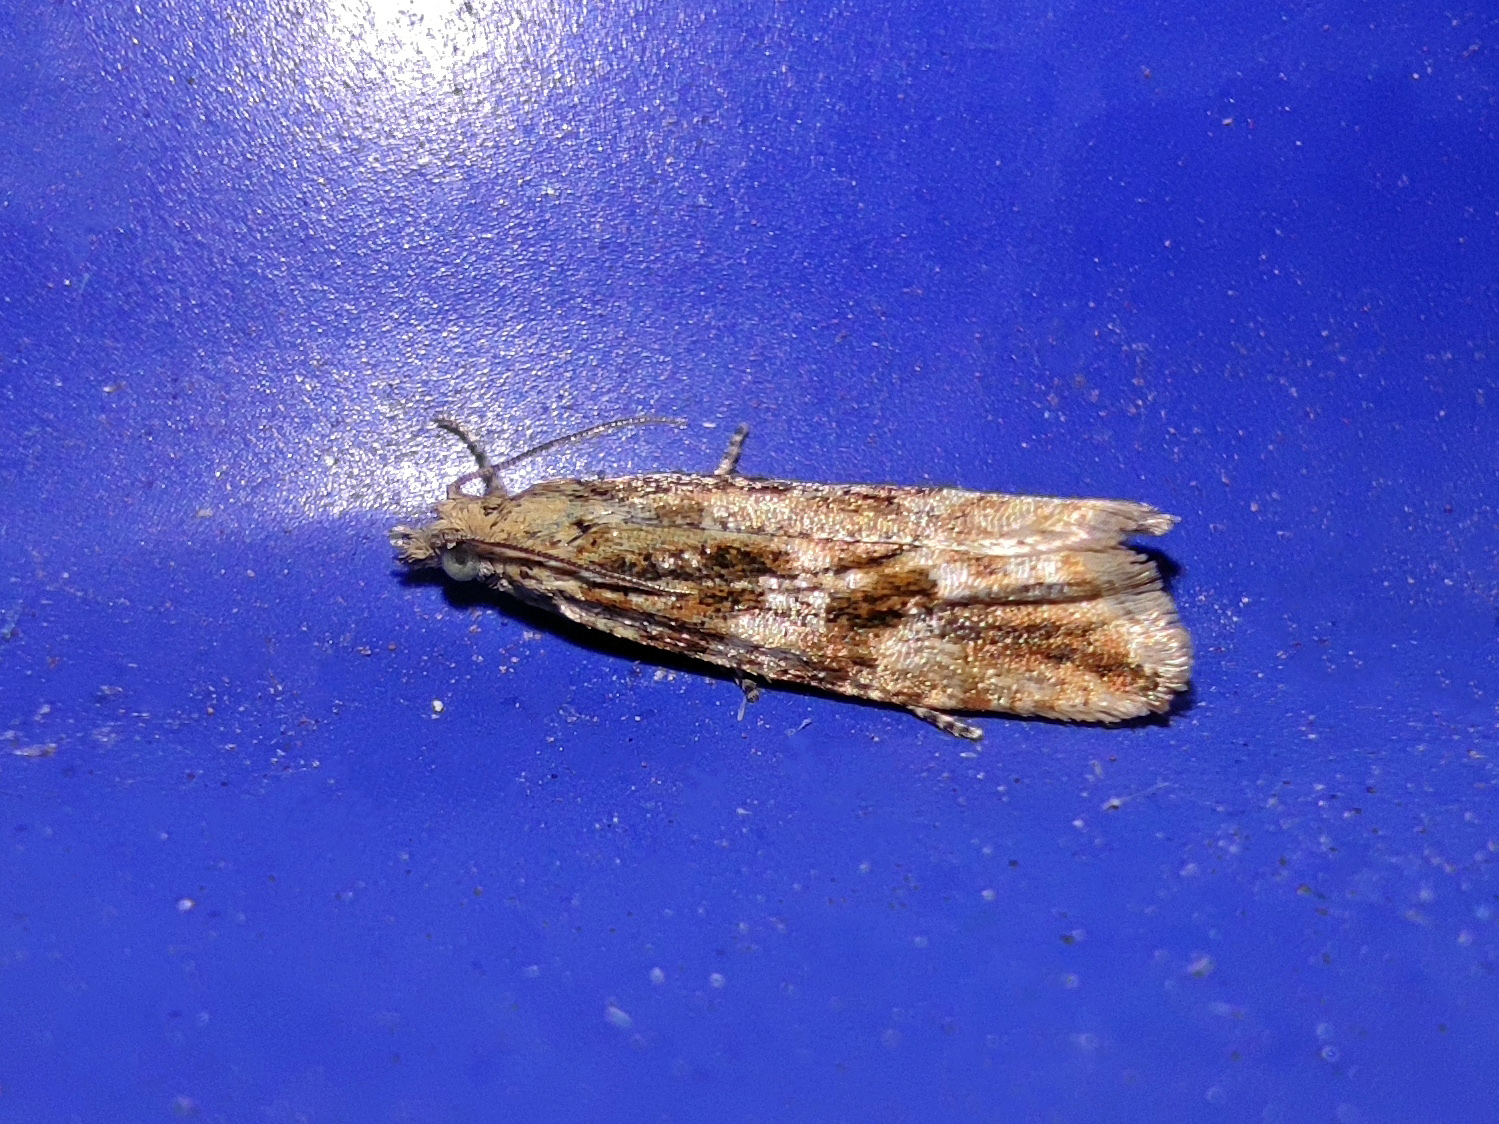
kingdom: Animalia
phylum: Arthropoda
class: Insecta
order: Lepidoptera
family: Tortricidae
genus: Bactra
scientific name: Bactra furfurana
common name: Mottled marble
